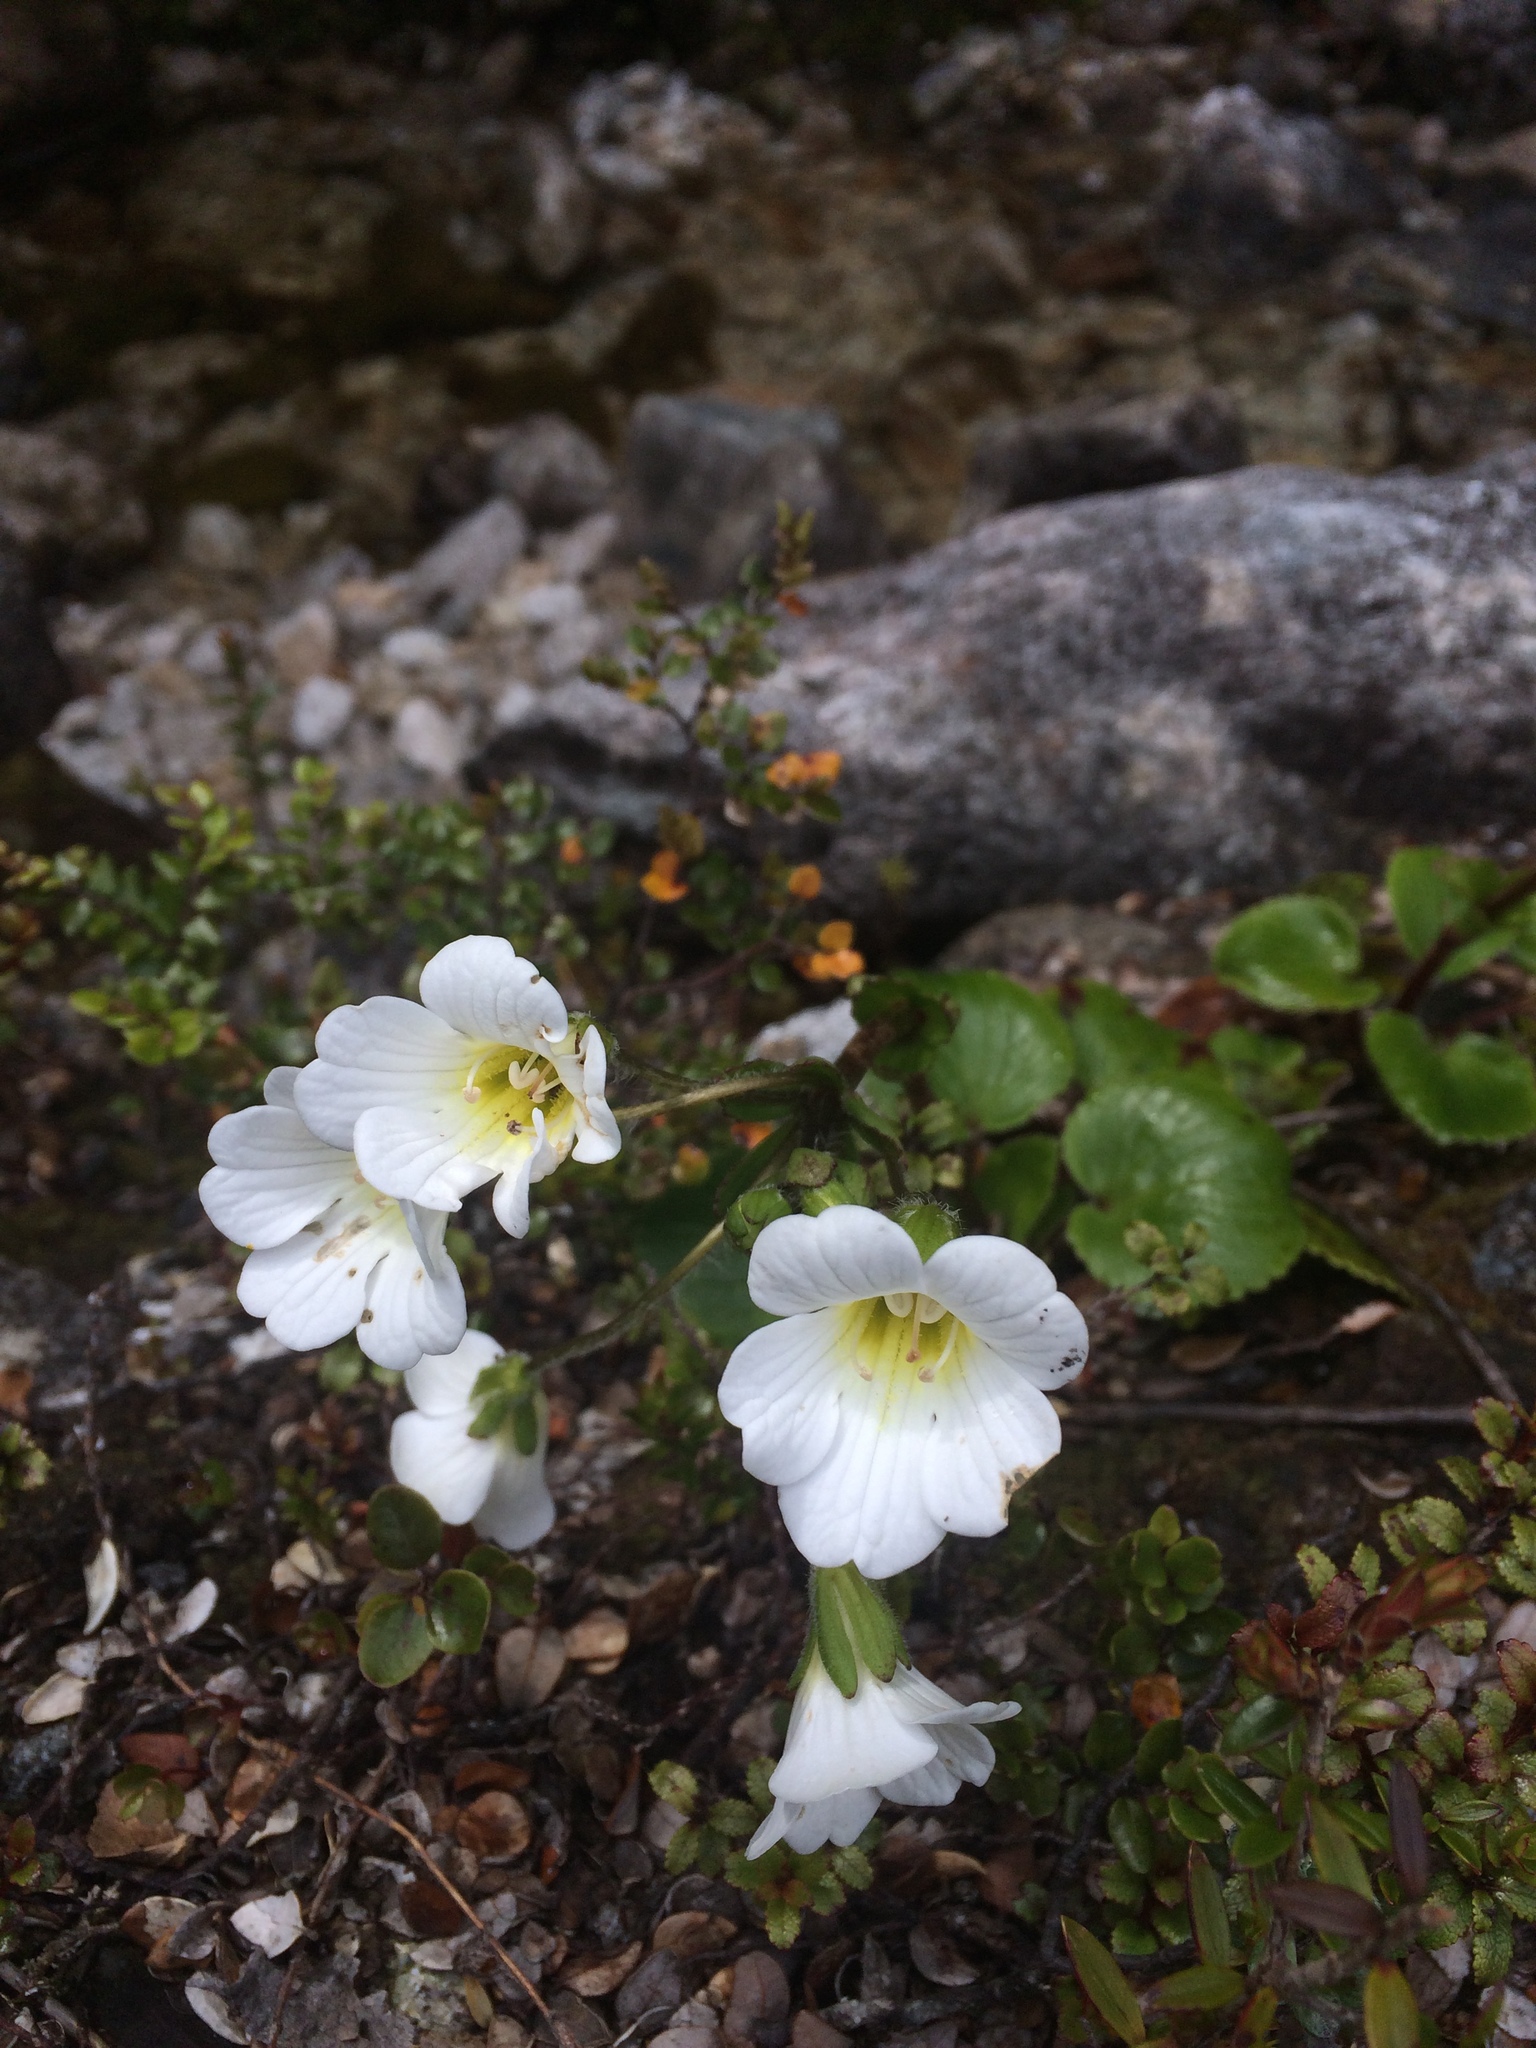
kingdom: Plantae
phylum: Tracheophyta
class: Magnoliopsida
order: Lamiales
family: Plantaginaceae
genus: Ourisia
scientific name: Ourisia macrocarpa
